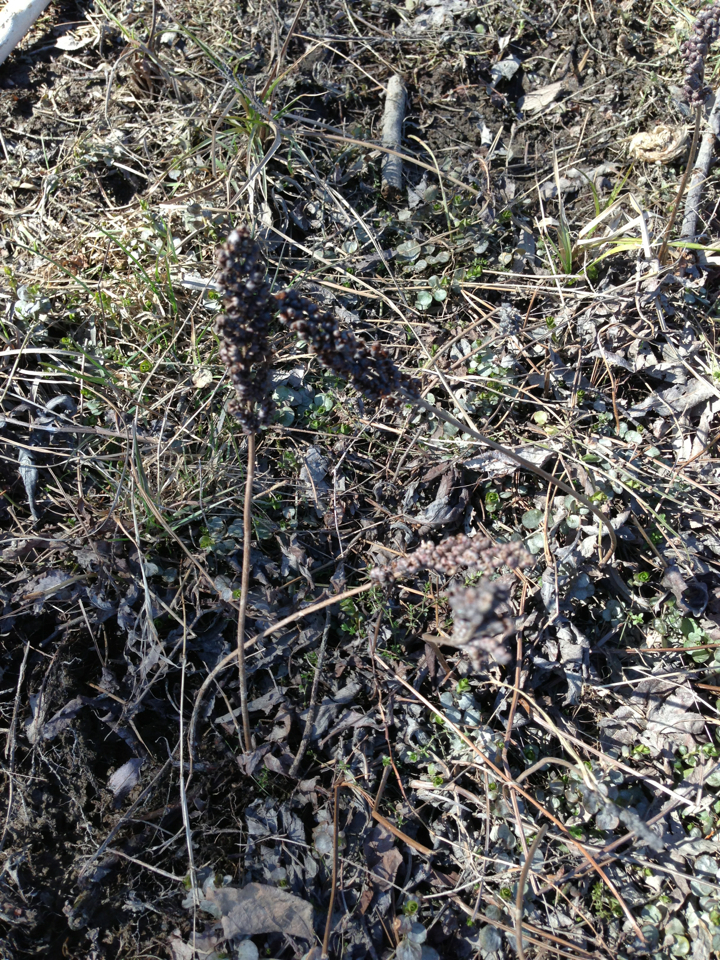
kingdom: Plantae
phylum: Tracheophyta
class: Polypodiopsida
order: Polypodiales
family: Onocleaceae
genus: Onoclea
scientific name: Onoclea sensibilis
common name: Sensitive fern
